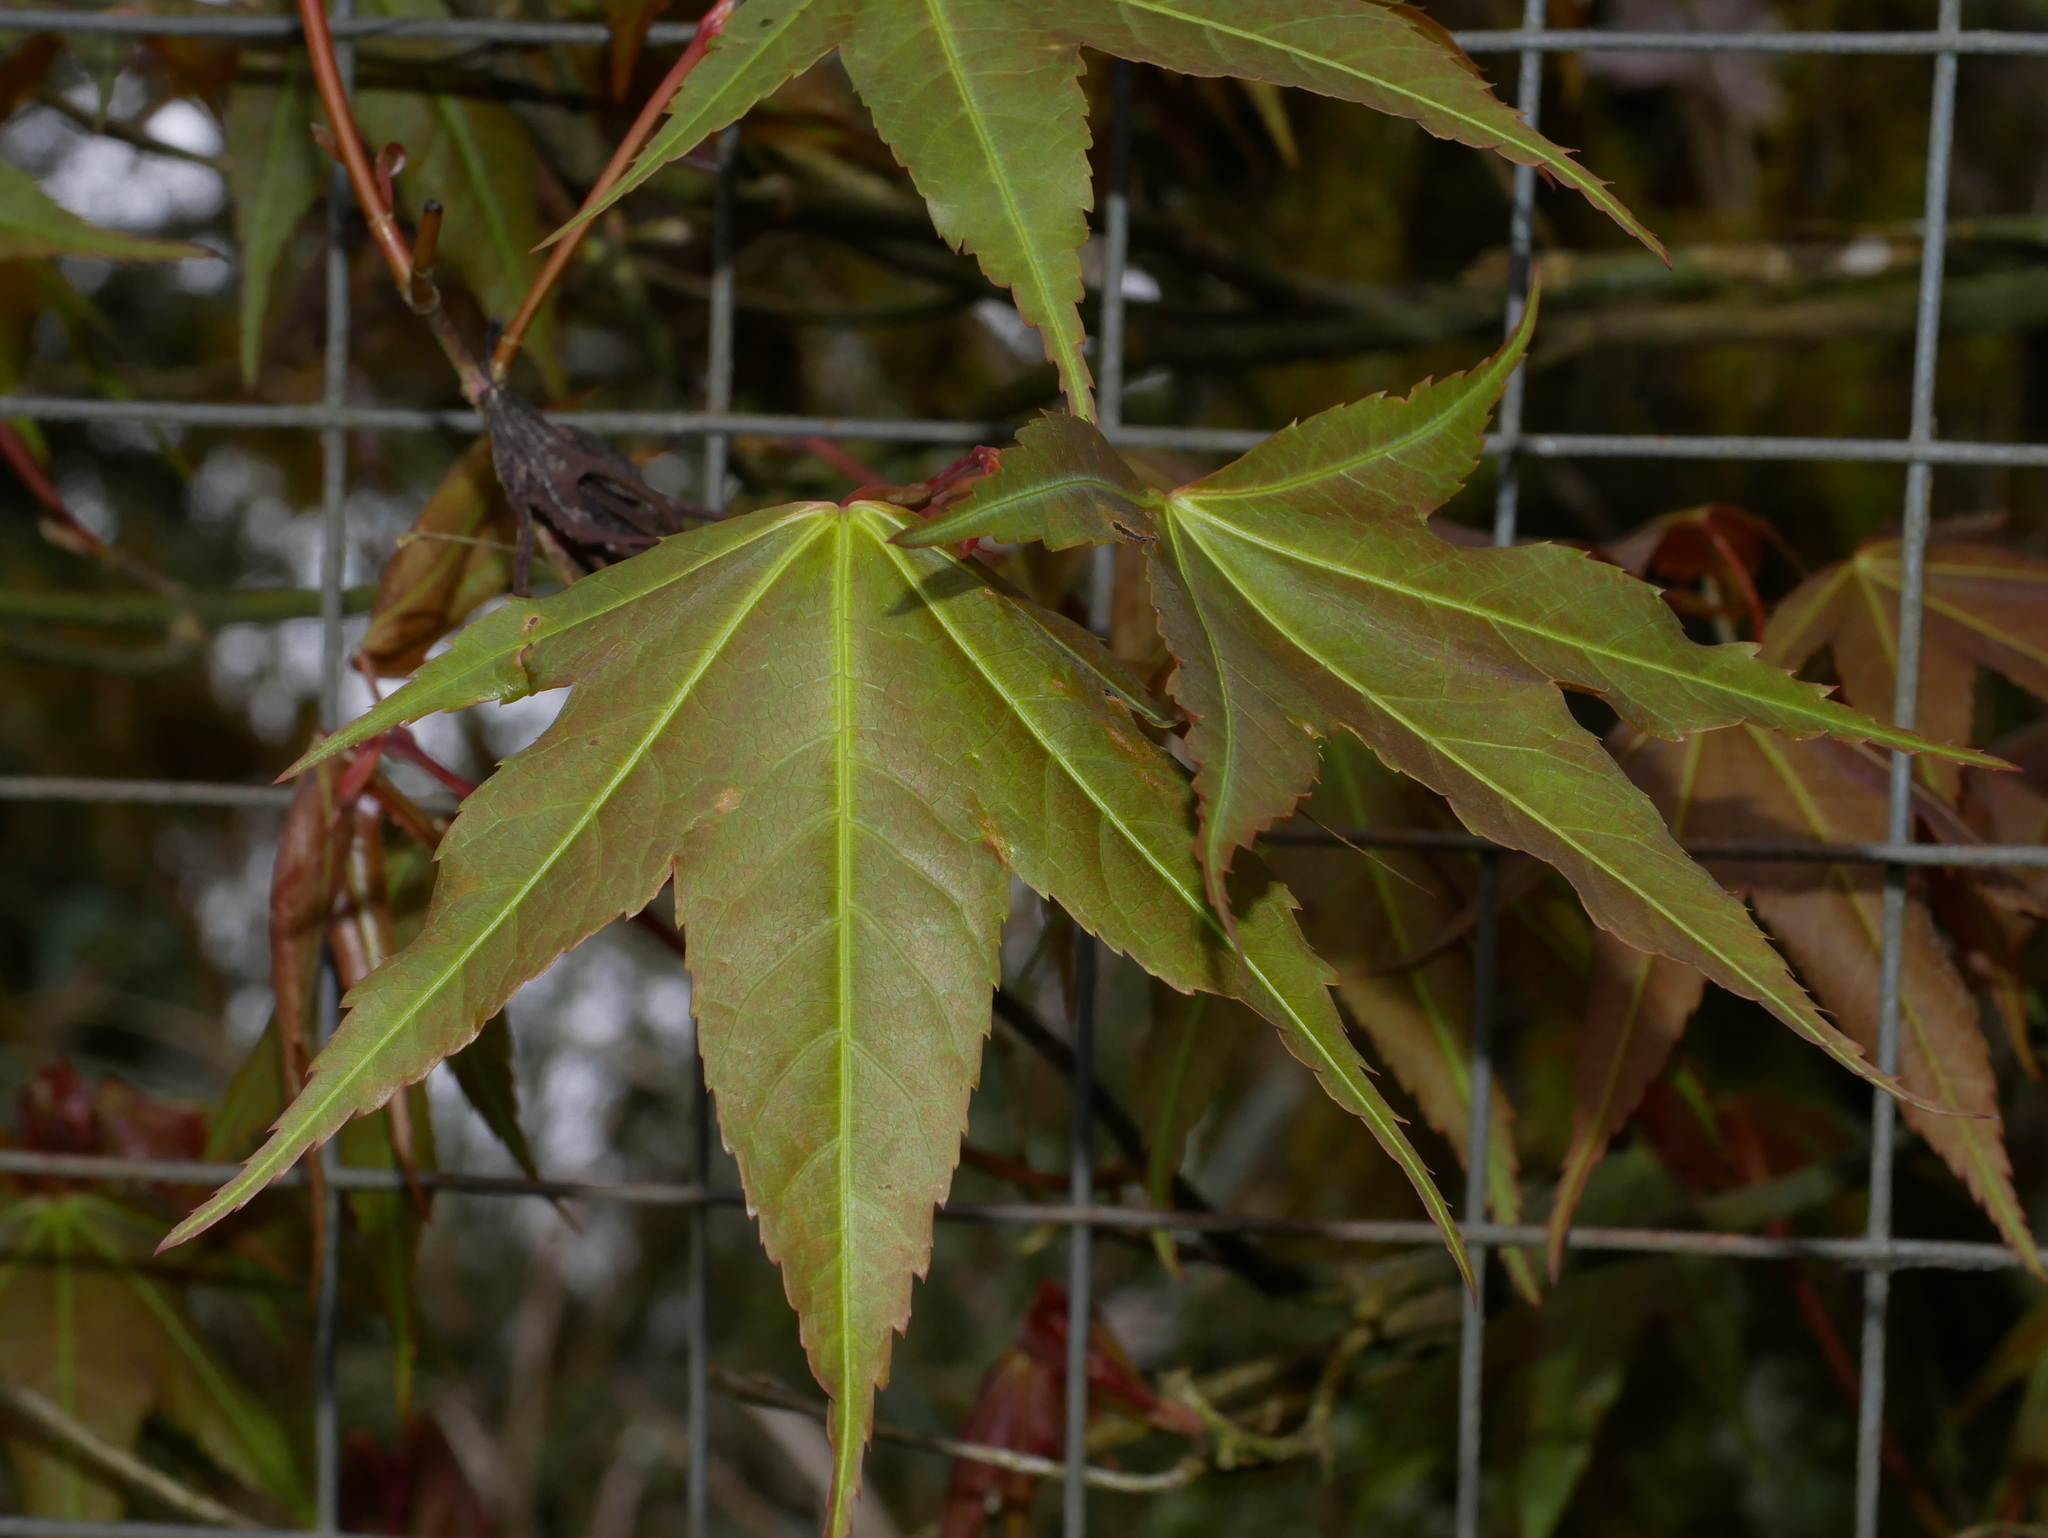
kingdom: Plantae
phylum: Tracheophyta
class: Magnoliopsida
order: Sapindales
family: Sapindaceae
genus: Acer
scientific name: Acer serrulatum
